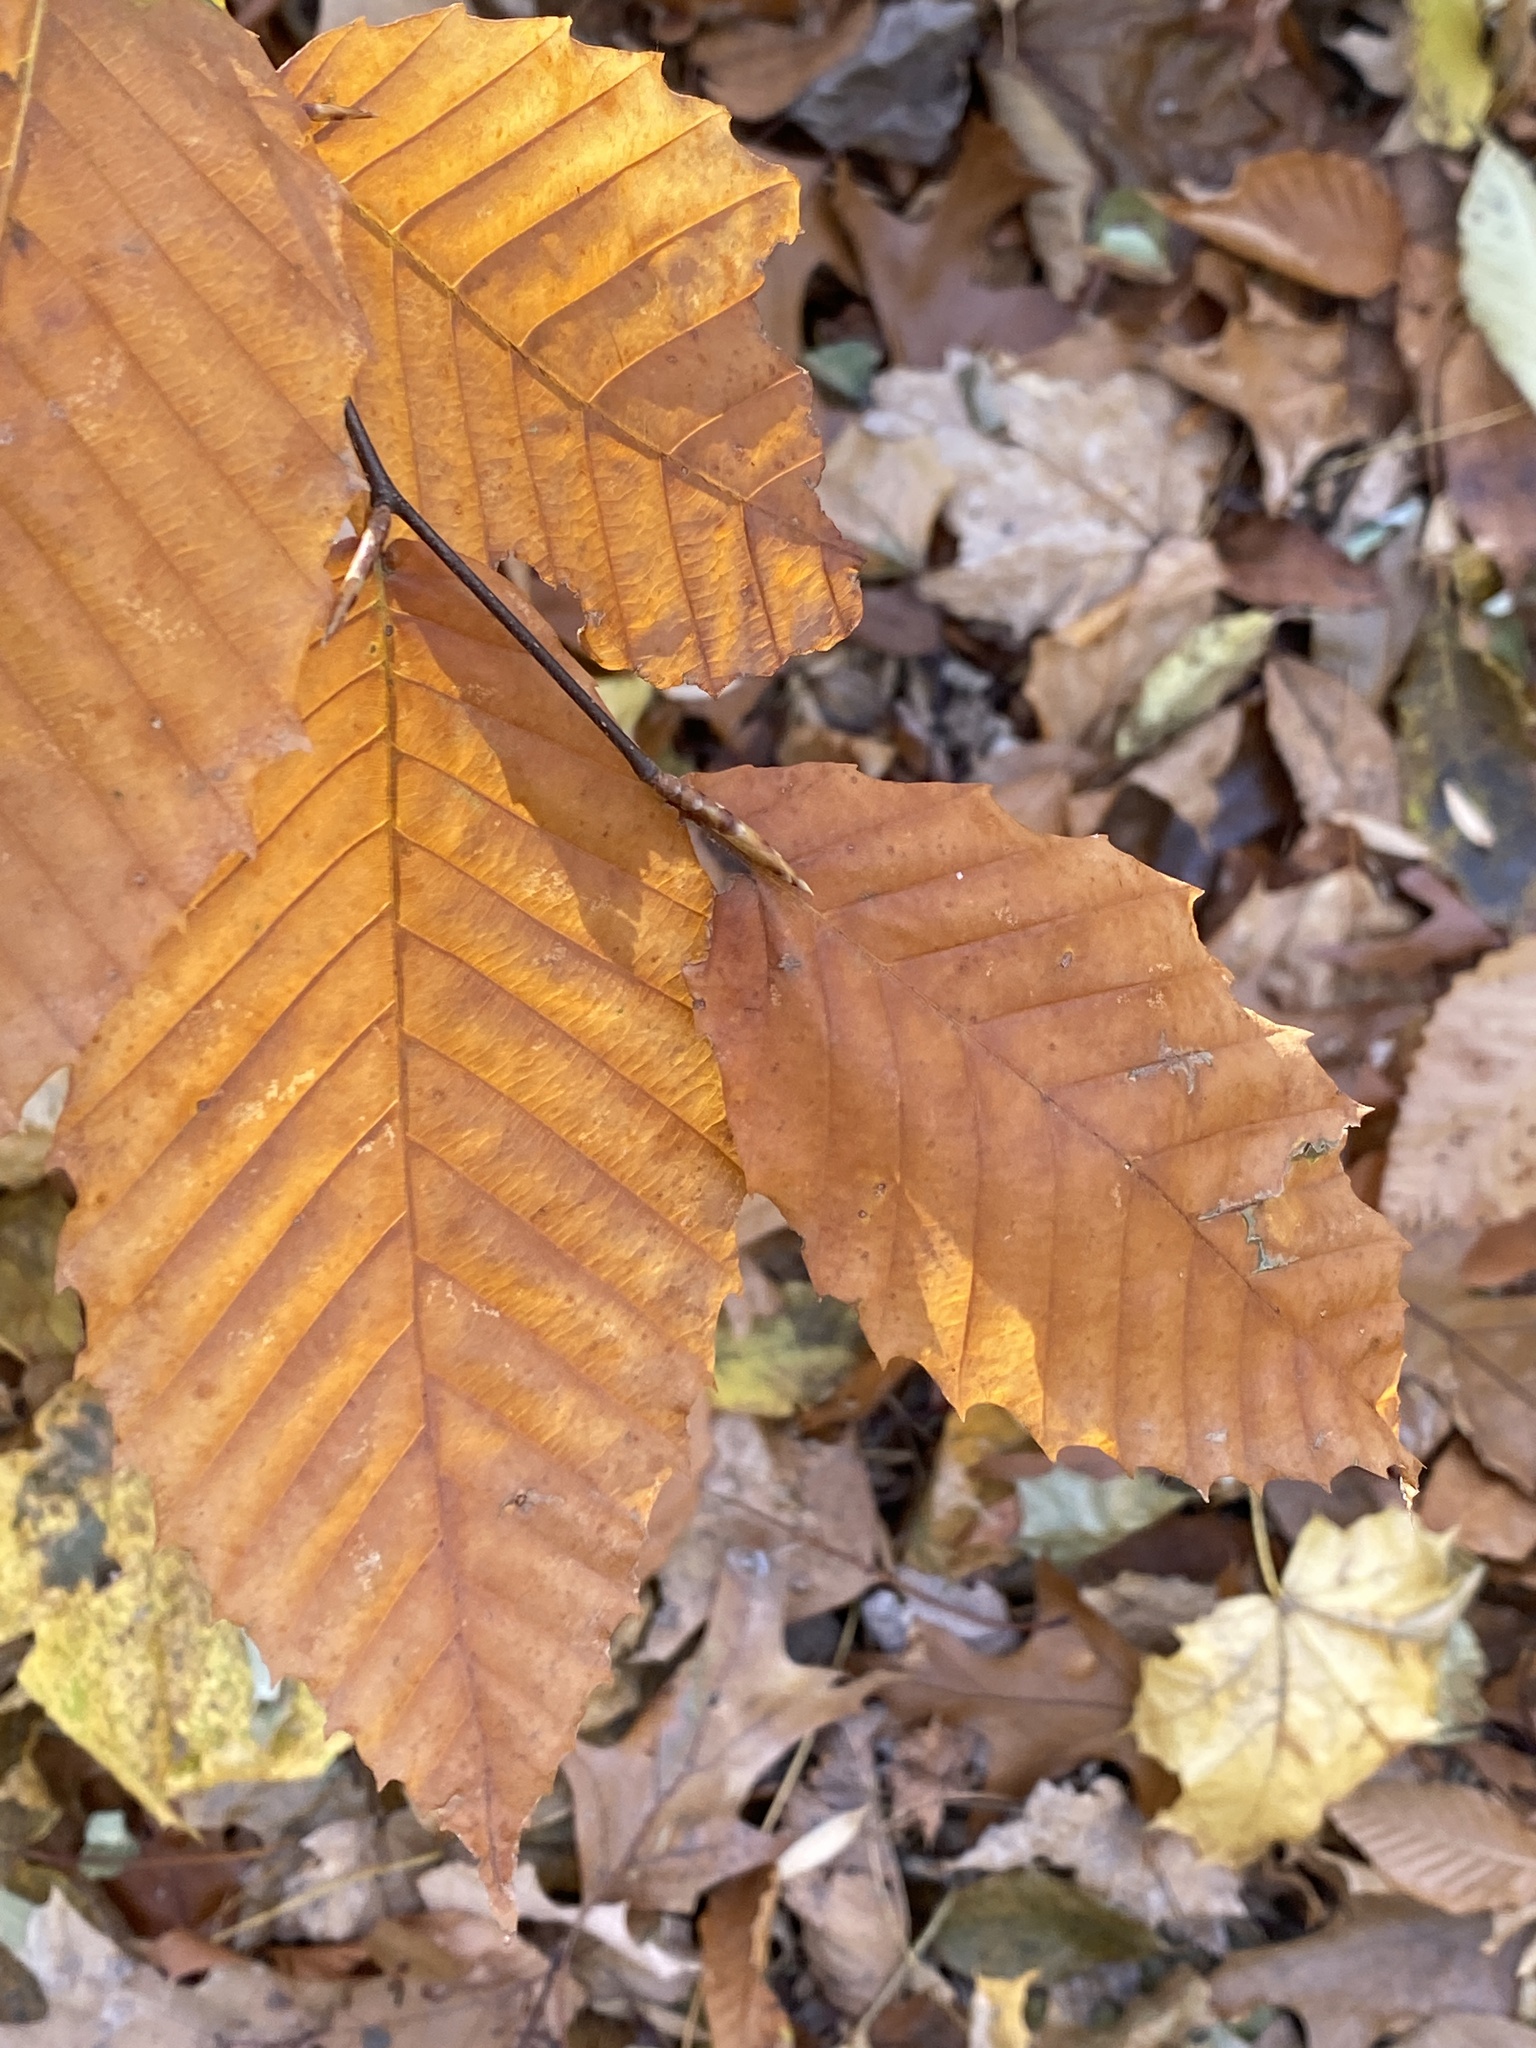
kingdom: Plantae
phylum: Tracheophyta
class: Magnoliopsida
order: Fagales
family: Fagaceae
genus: Fagus
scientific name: Fagus grandifolia
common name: American beech
